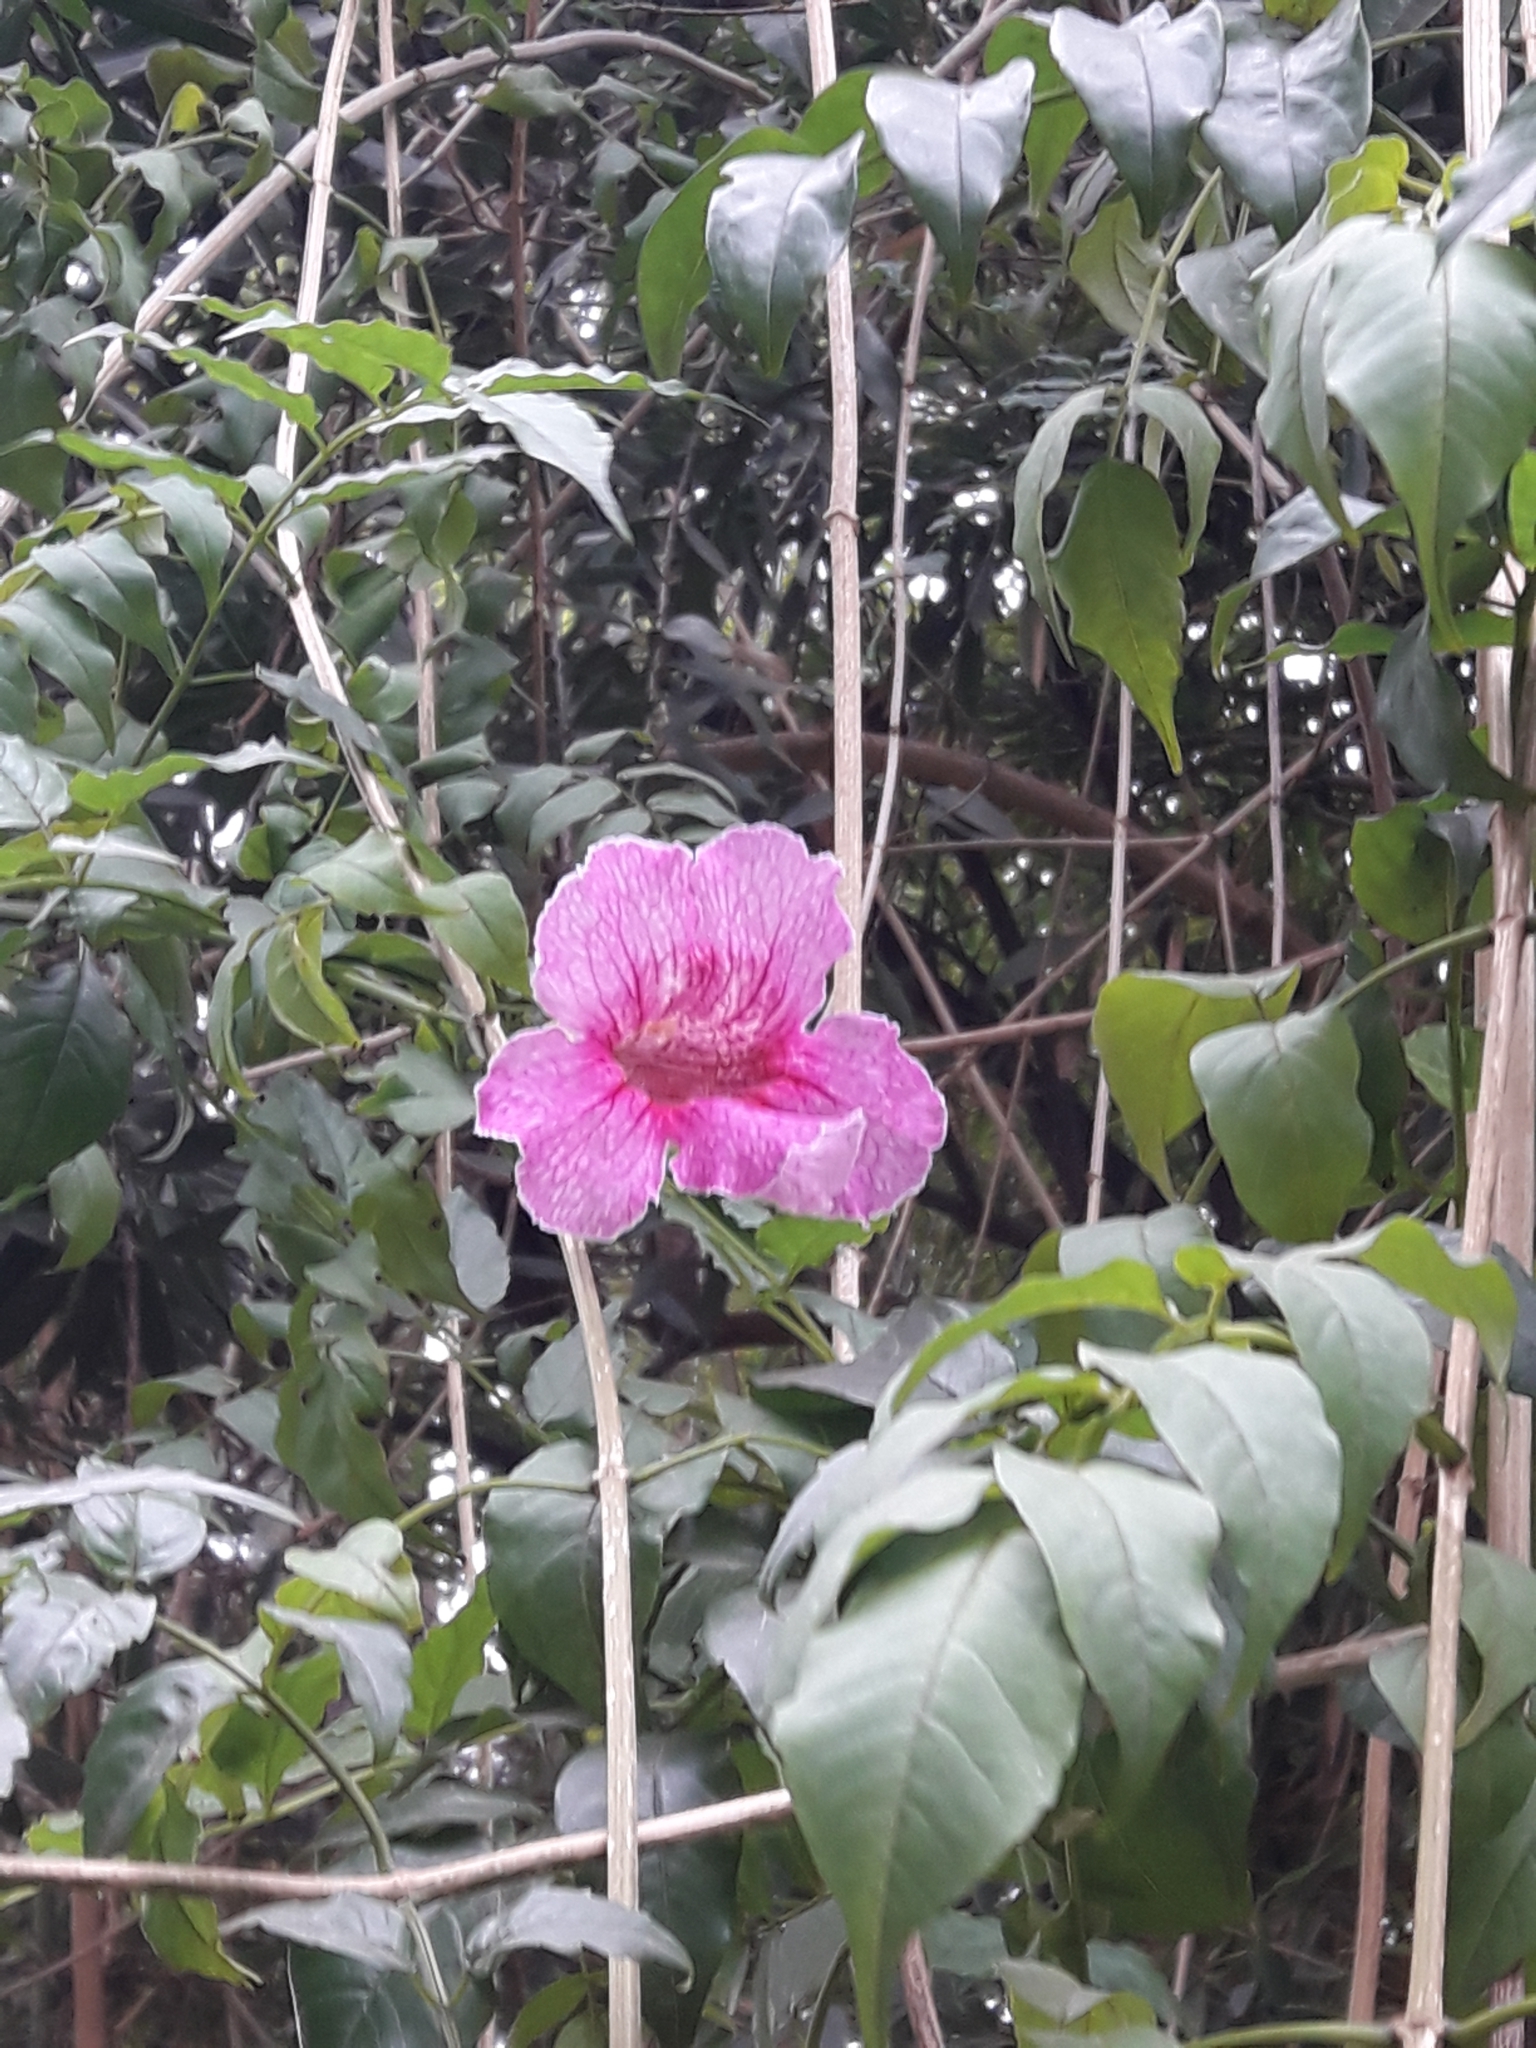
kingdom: Plantae
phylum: Tracheophyta
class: Magnoliopsida
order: Lamiales
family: Bignoniaceae
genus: Podranea
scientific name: Podranea ricasoliana
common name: Zimbabwe creeper
